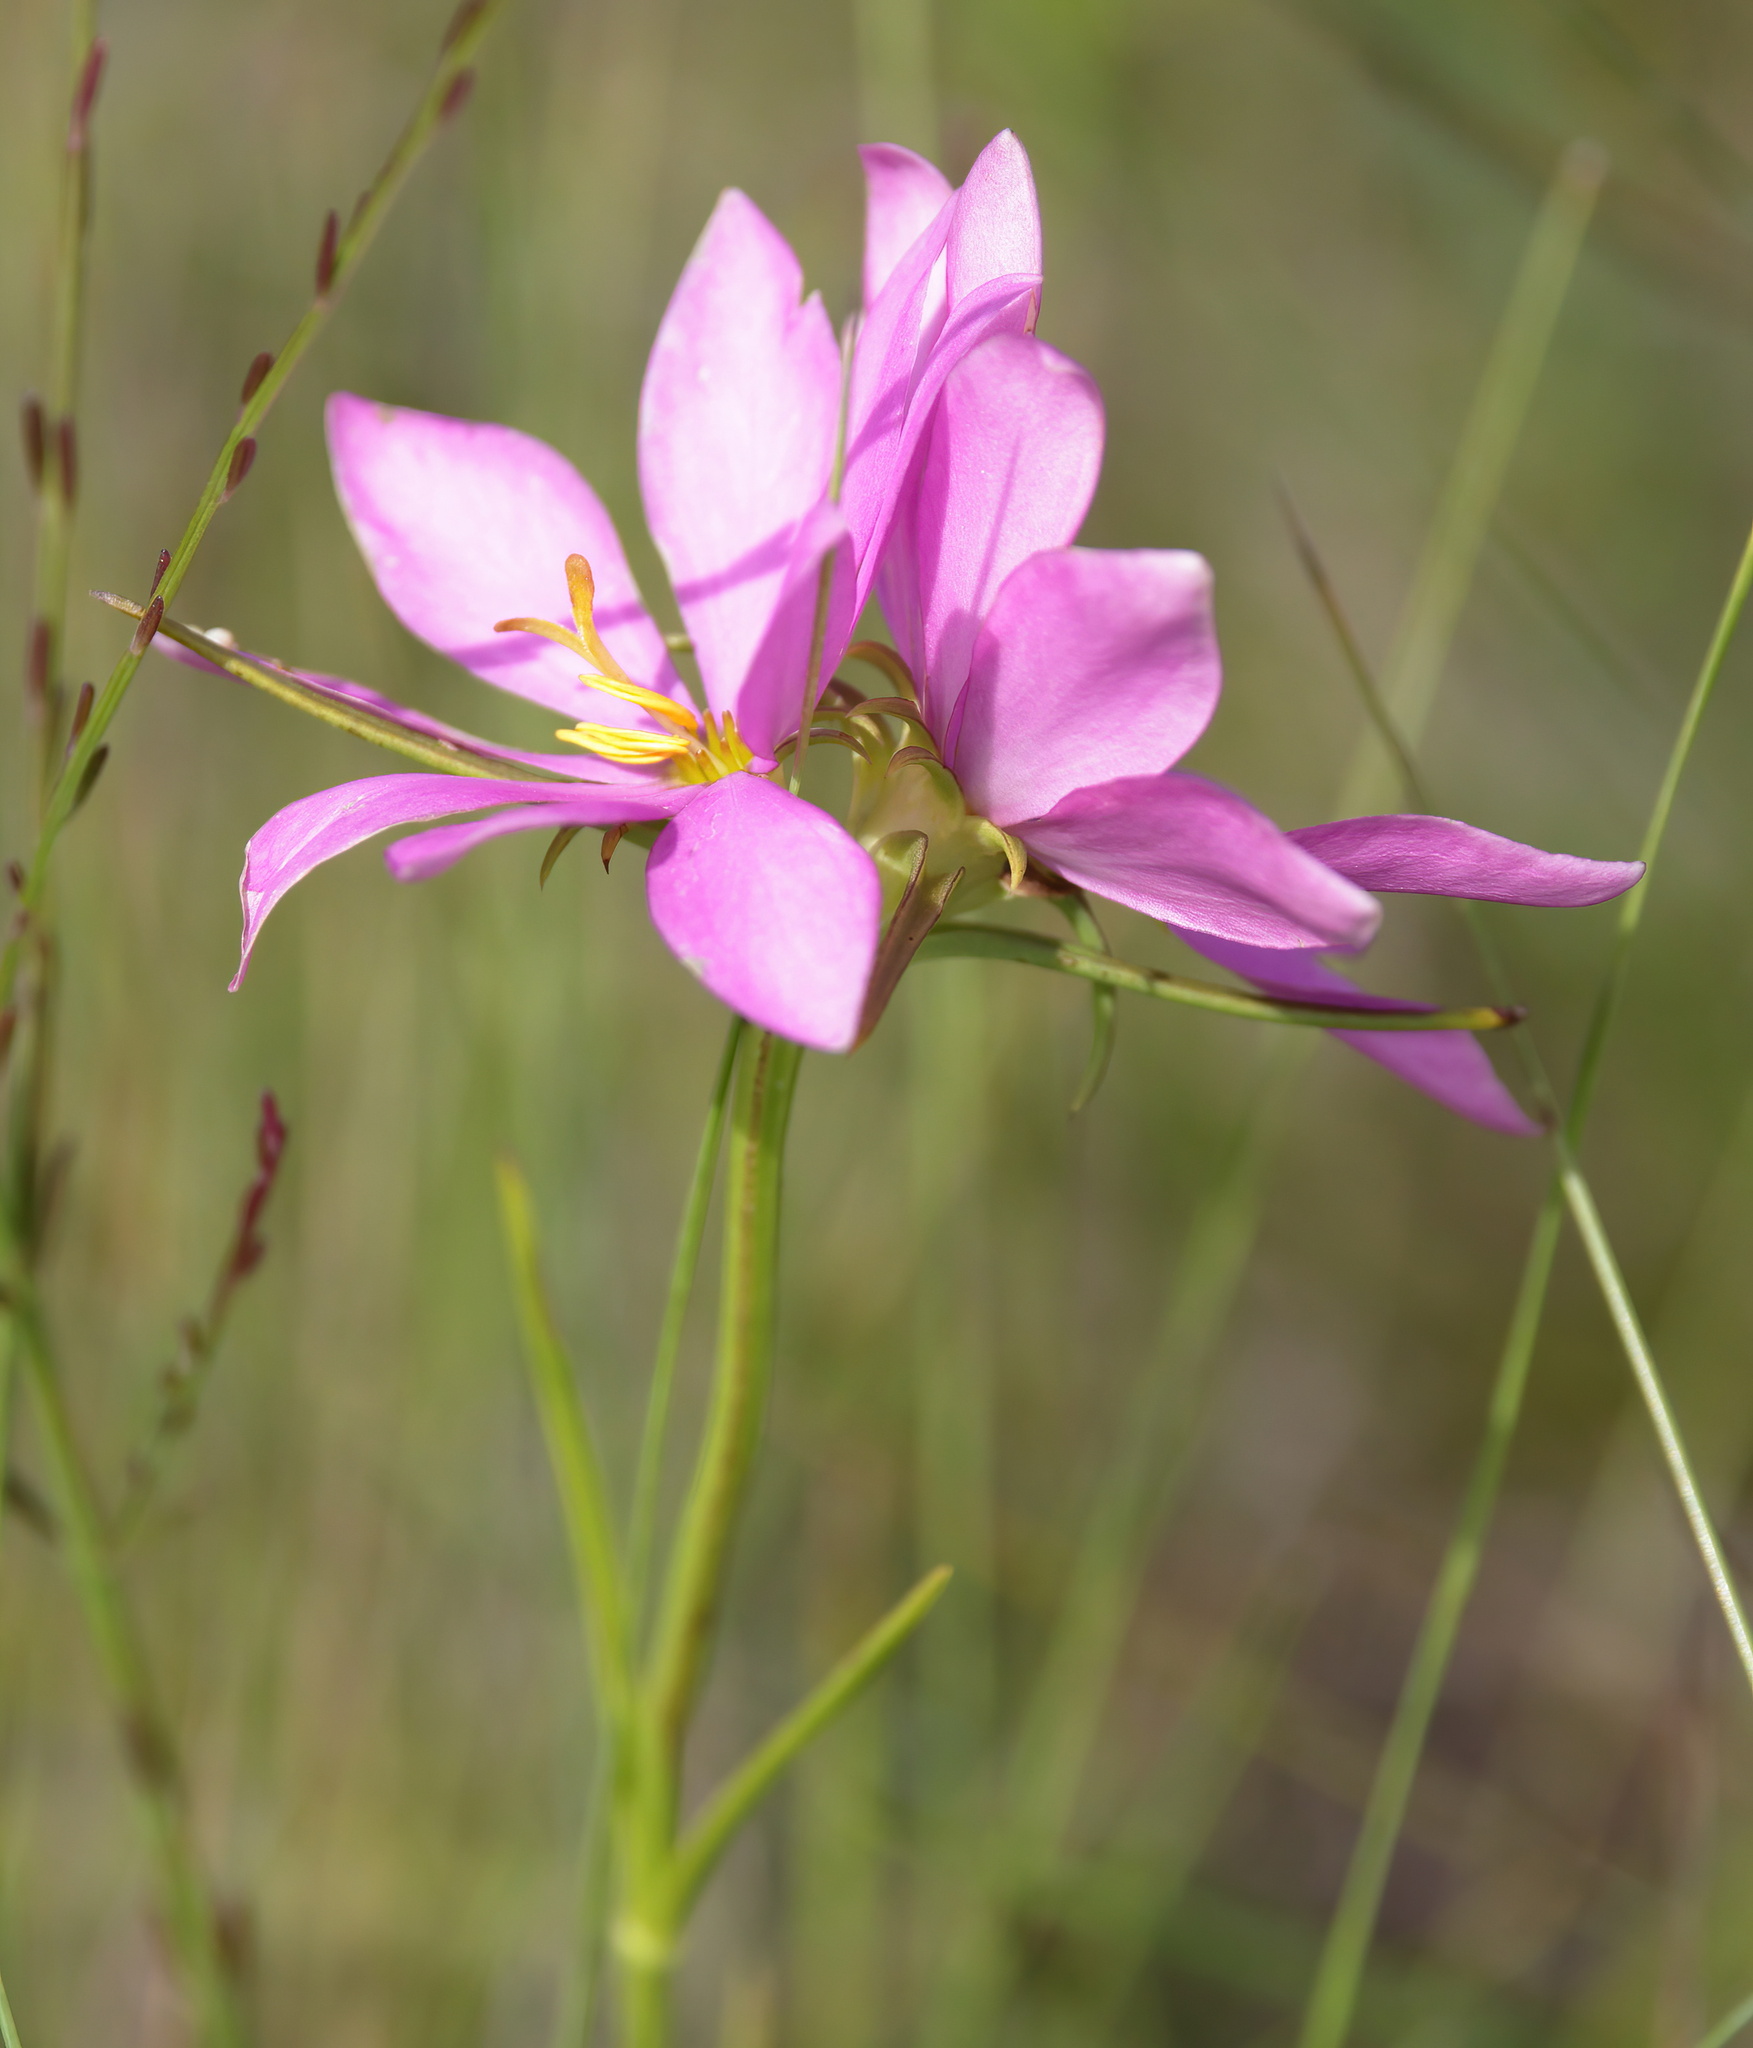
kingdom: Plantae
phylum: Tracheophyta
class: Magnoliopsida
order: Gentianales
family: Gentianaceae
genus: Sabatia
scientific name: Sabatia gentianoides
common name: Pinewoods rose-gentian
